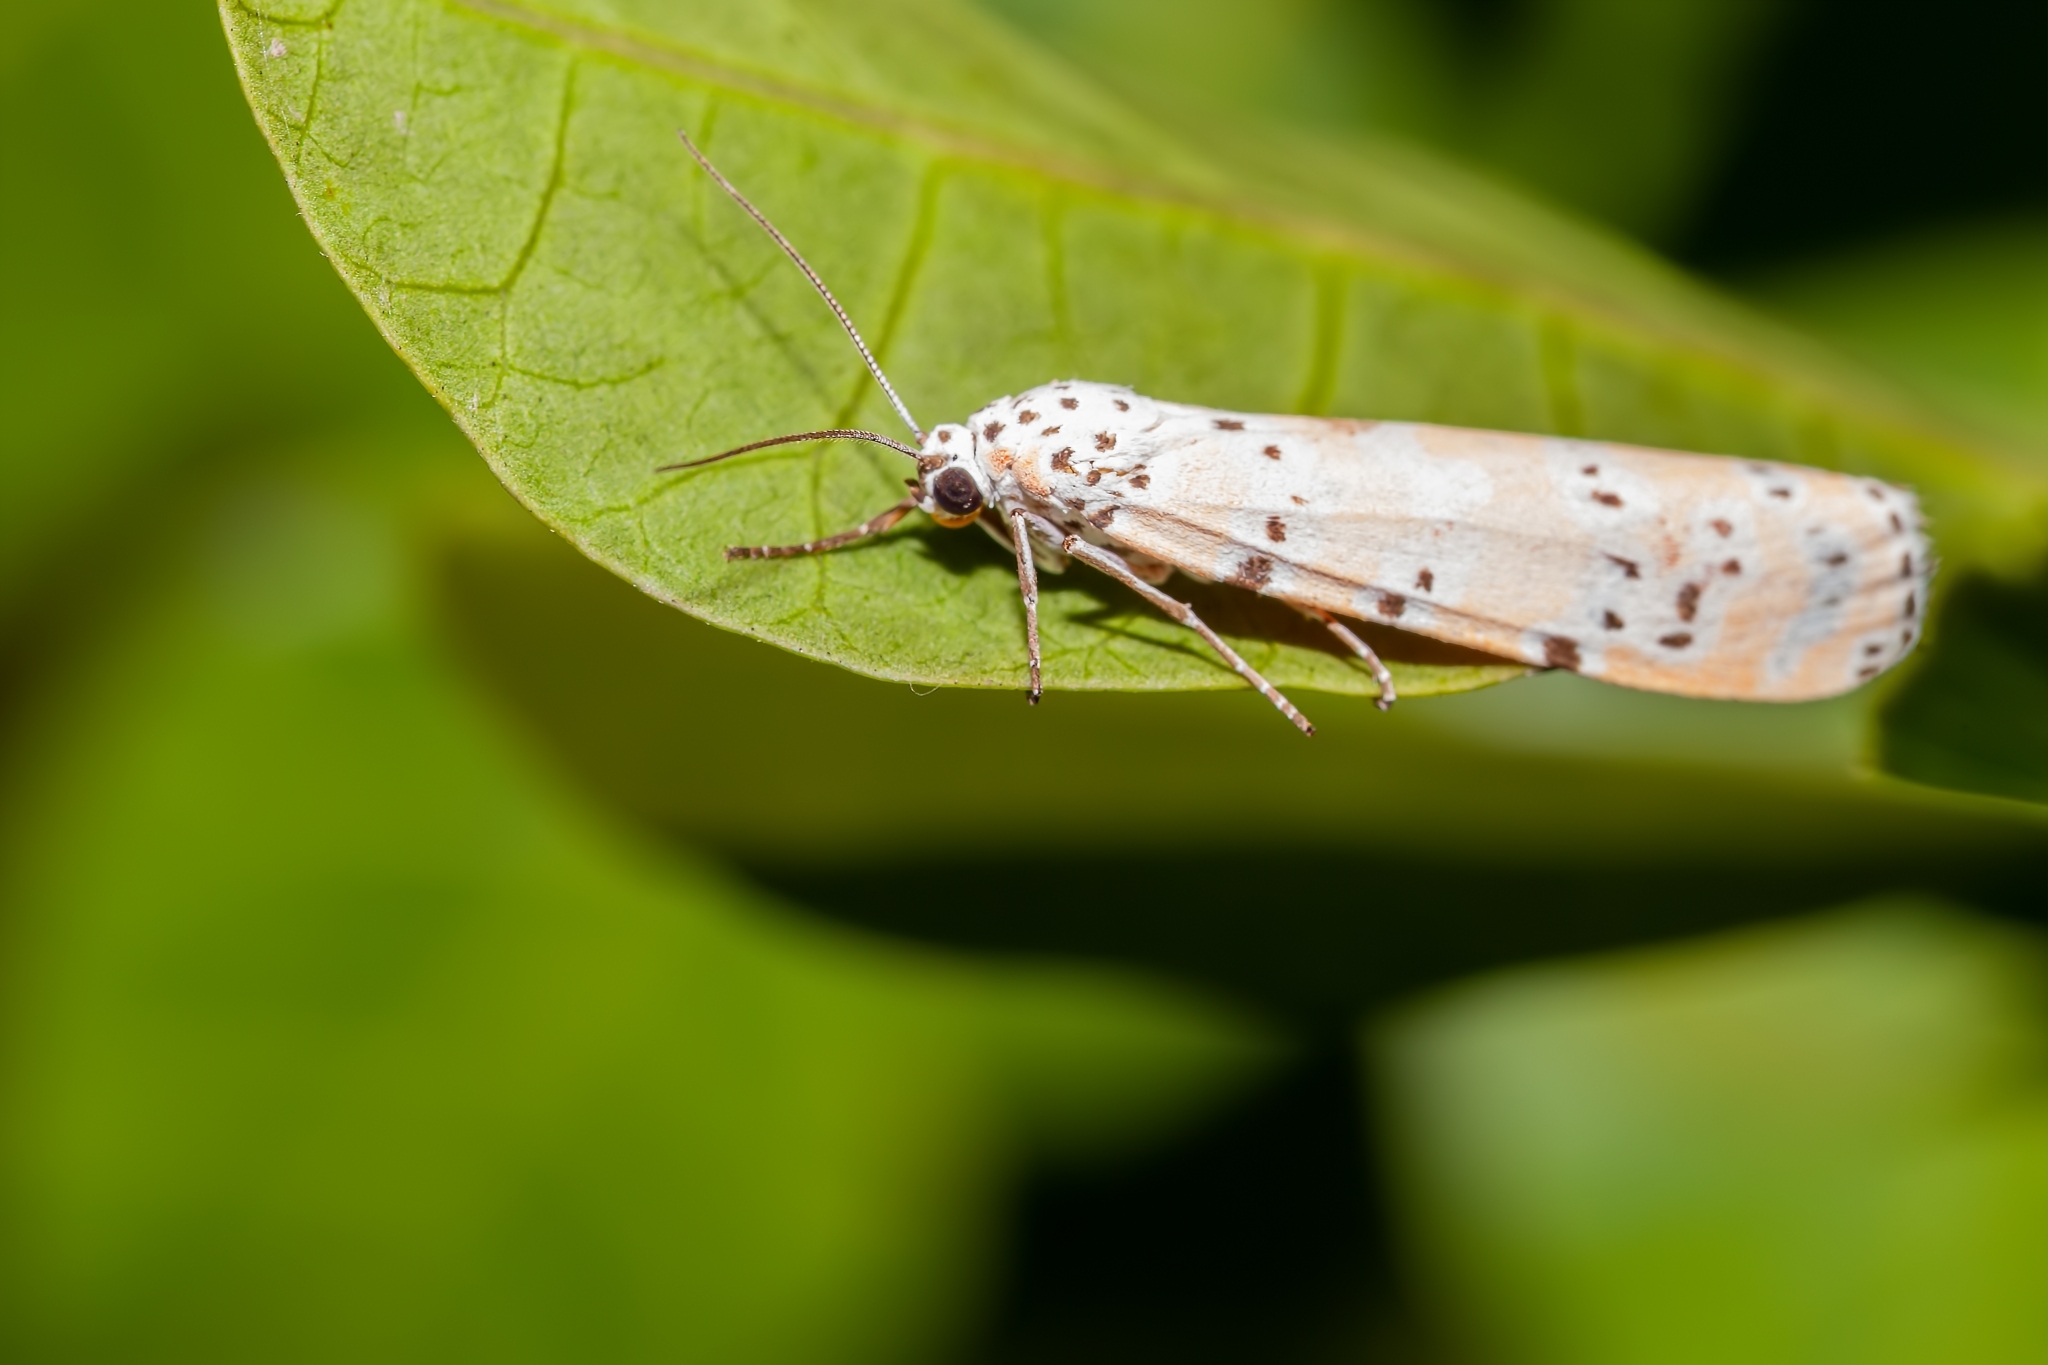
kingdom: Animalia
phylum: Arthropoda
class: Insecta
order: Lepidoptera
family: Erebidae
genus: Utetheisa
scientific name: Utetheisa ornatrix
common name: Beautiful utetheisa
